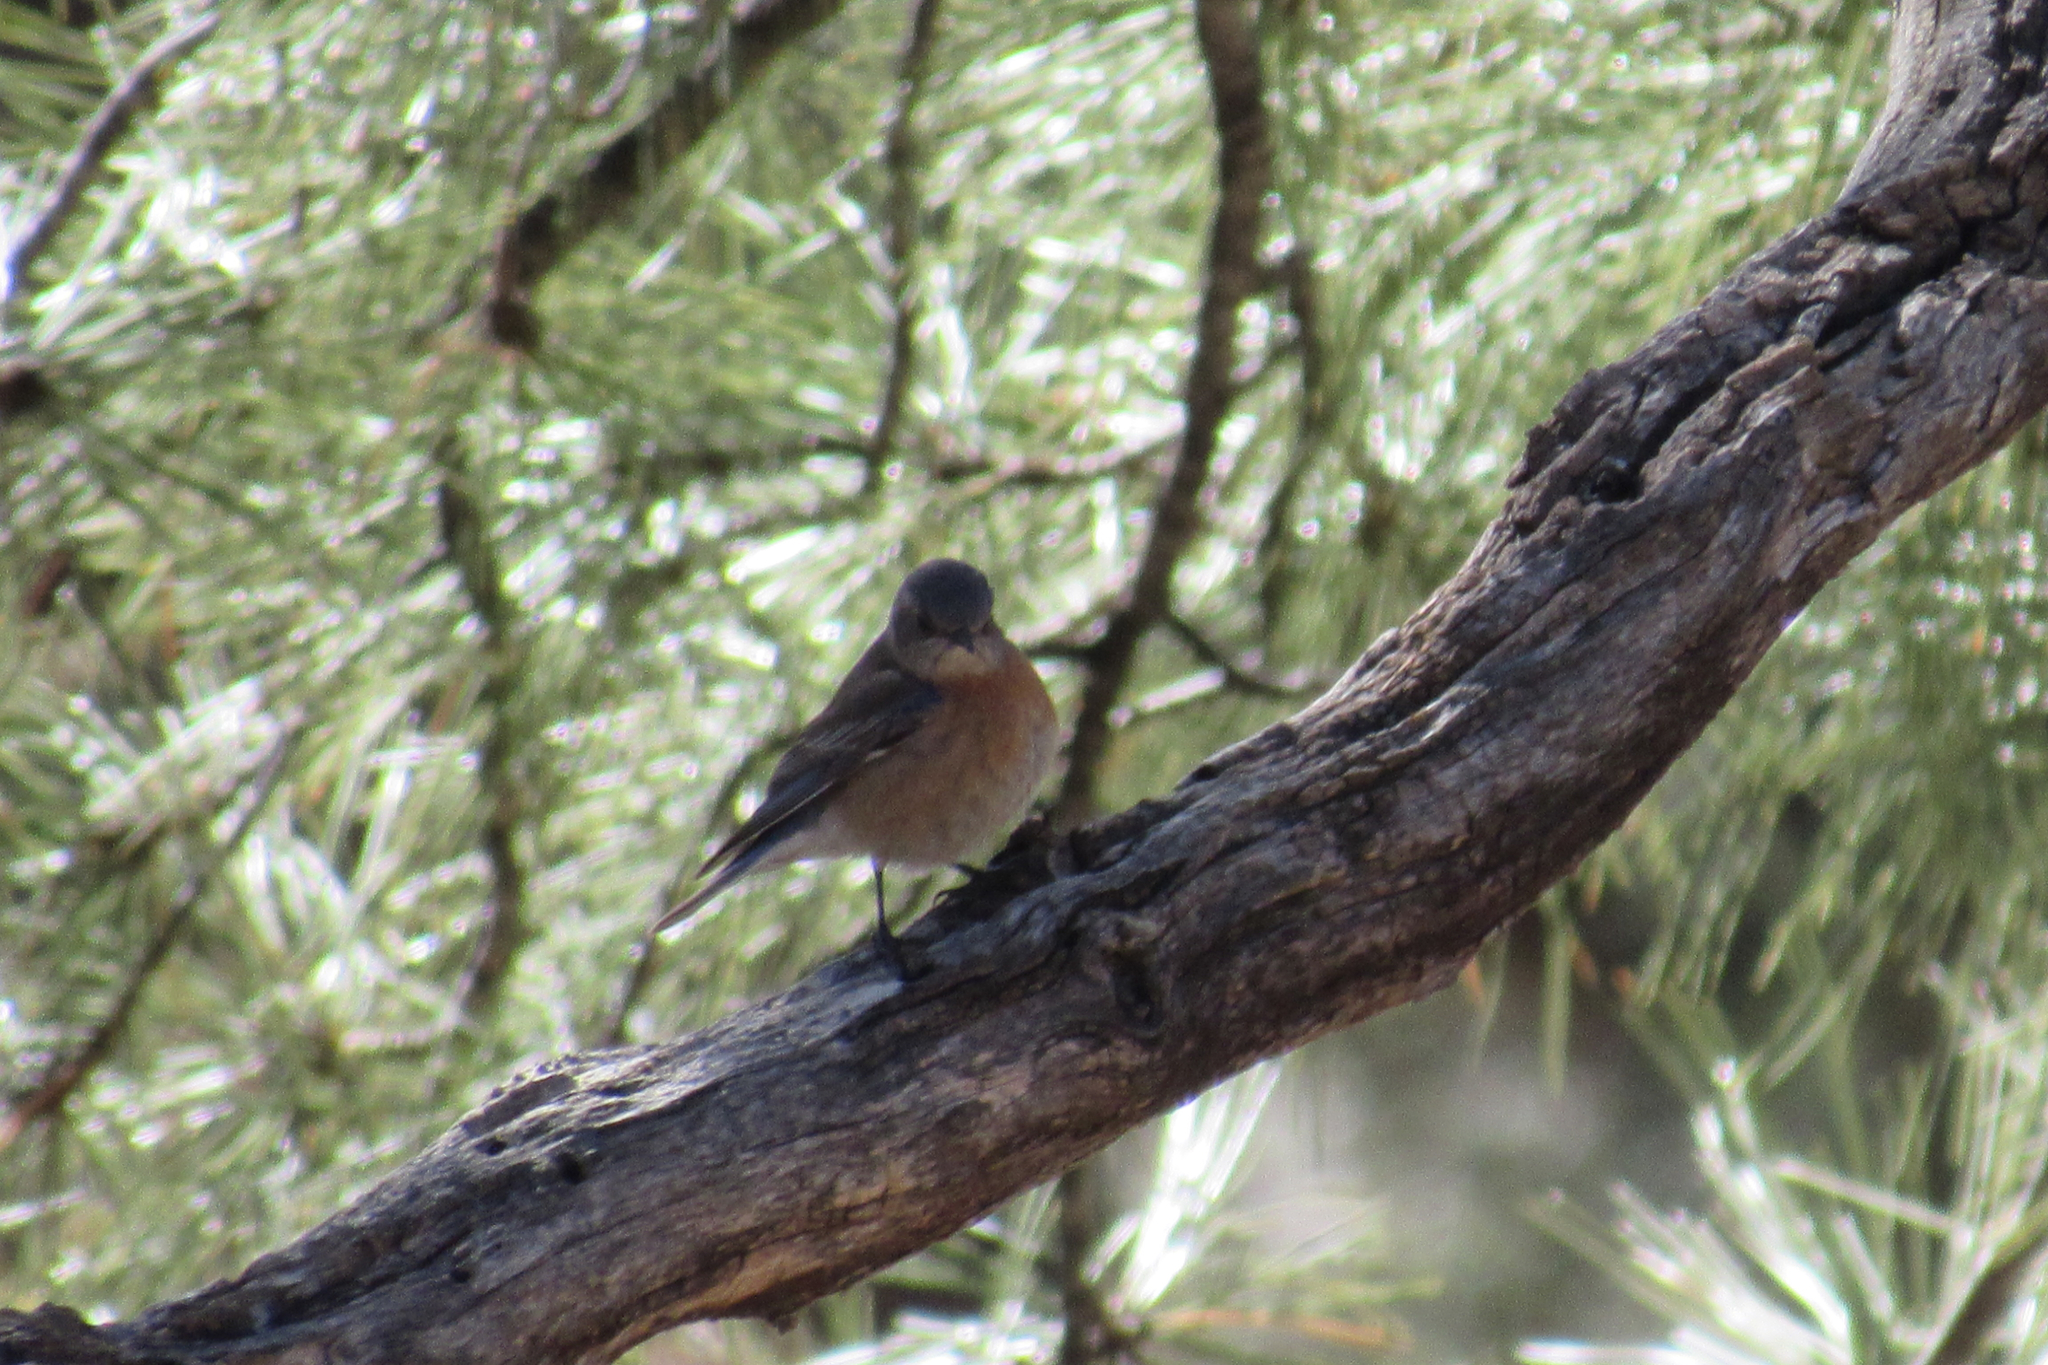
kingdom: Animalia
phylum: Chordata
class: Aves
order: Passeriformes
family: Turdidae
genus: Sialia
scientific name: Sialia mexicana
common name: Western bluebird
